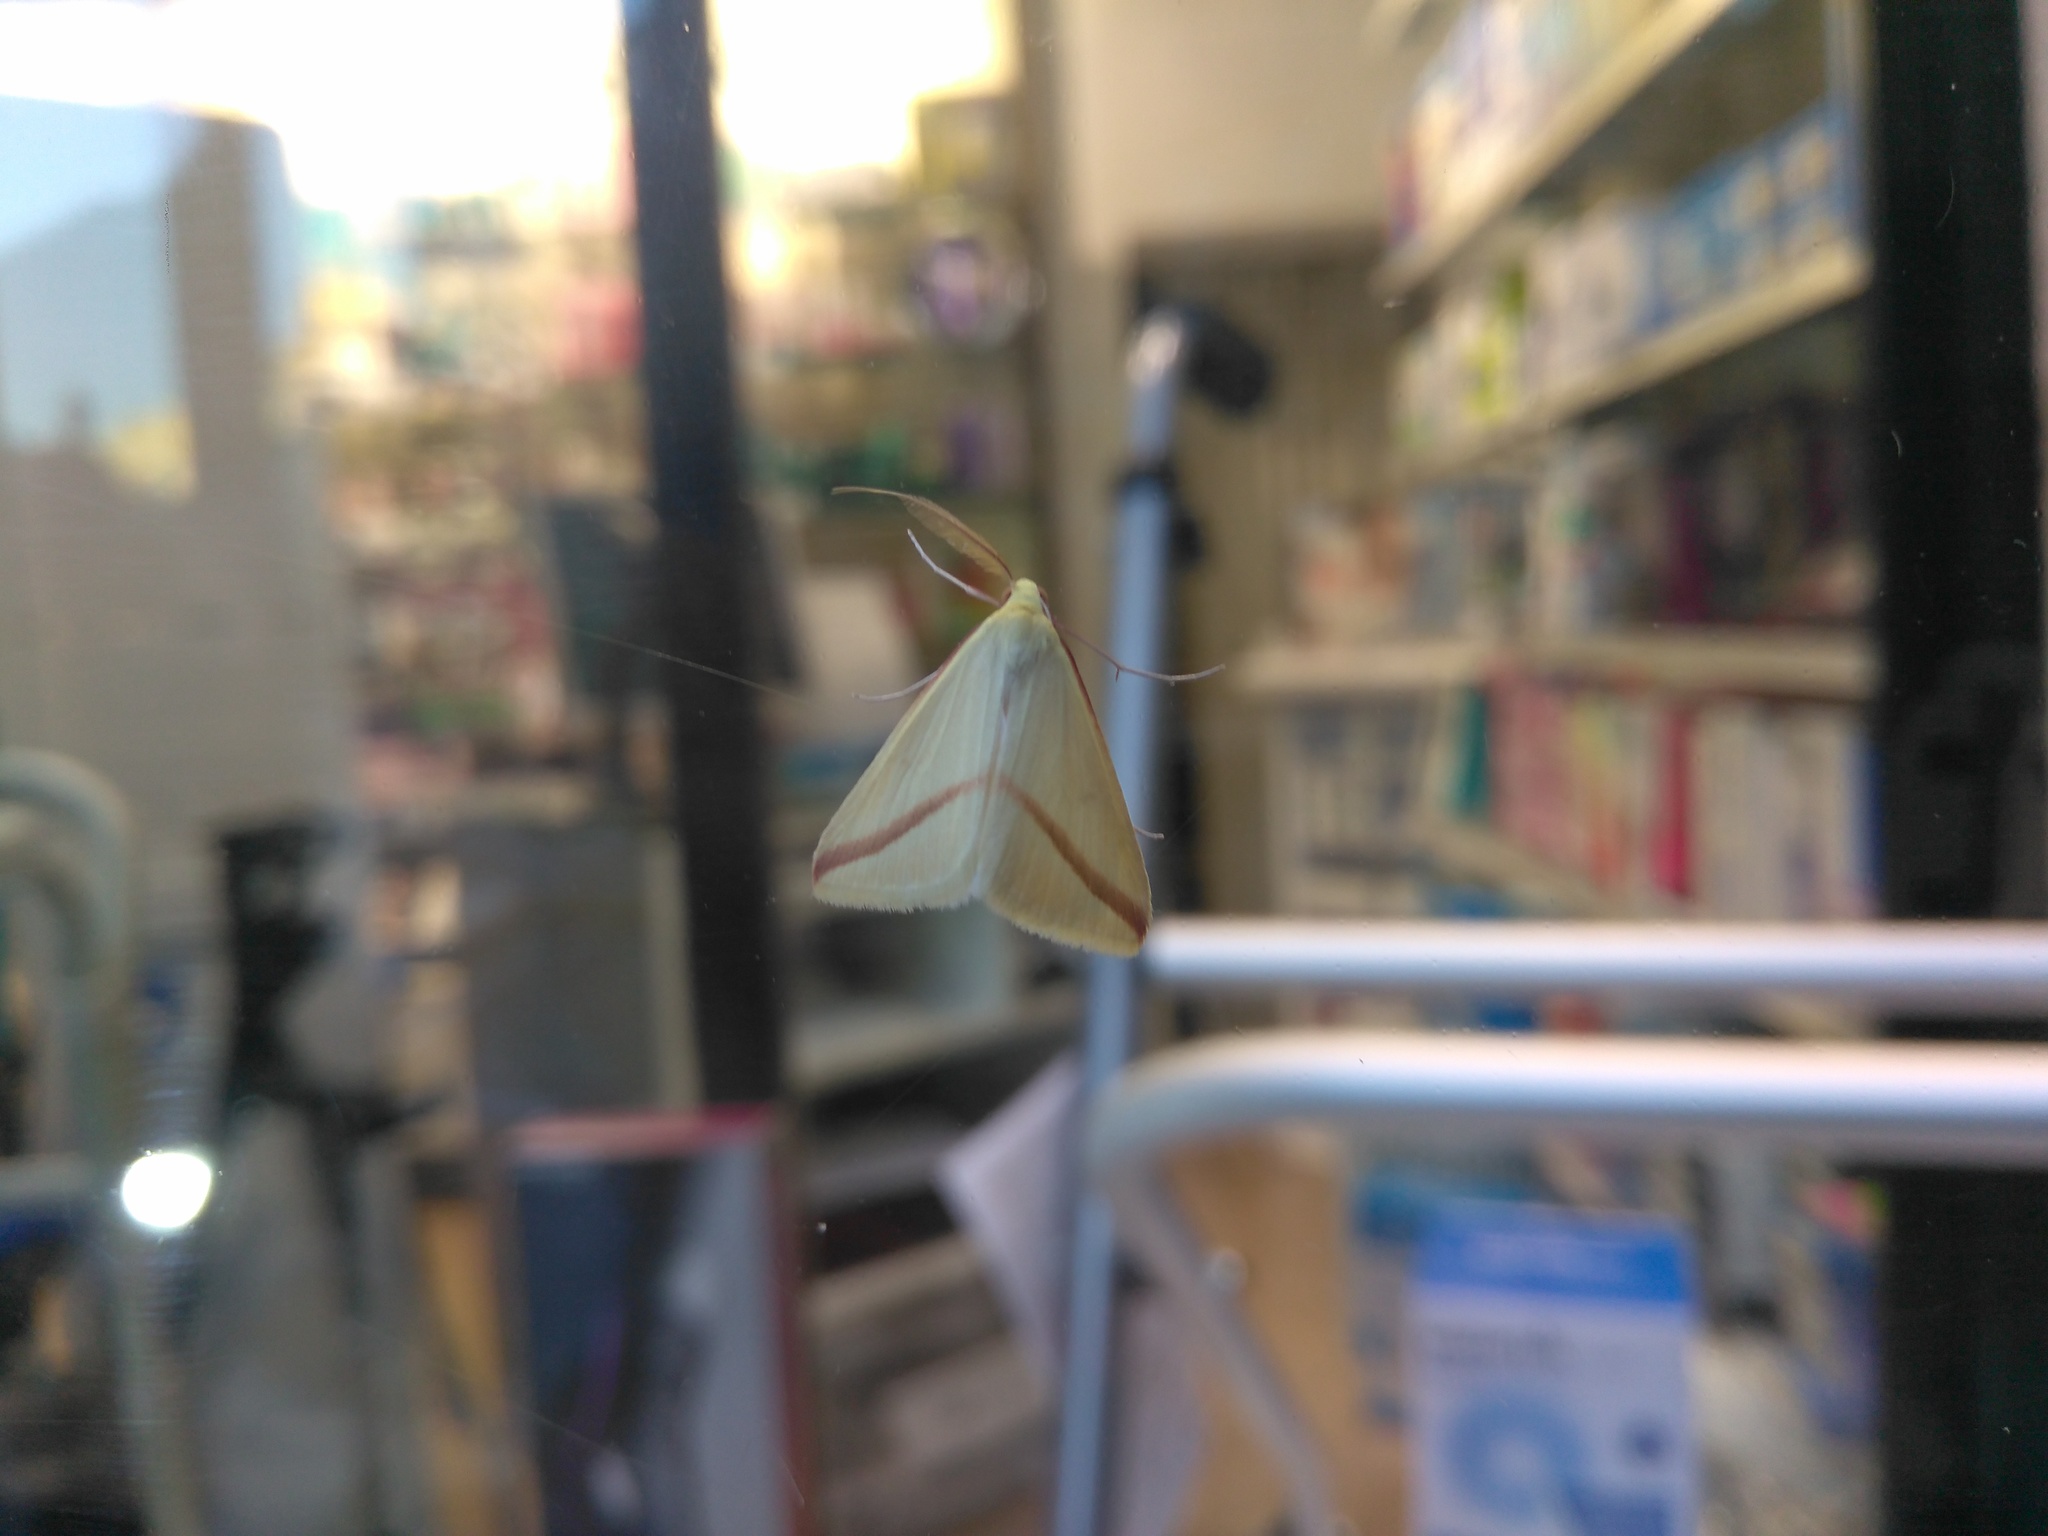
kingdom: Animalia
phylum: Arthropoda
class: Insecta
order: Lepidoptera
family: Geometridae
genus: Rhodometra
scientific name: Rhodometra sacraria
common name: Vestal
